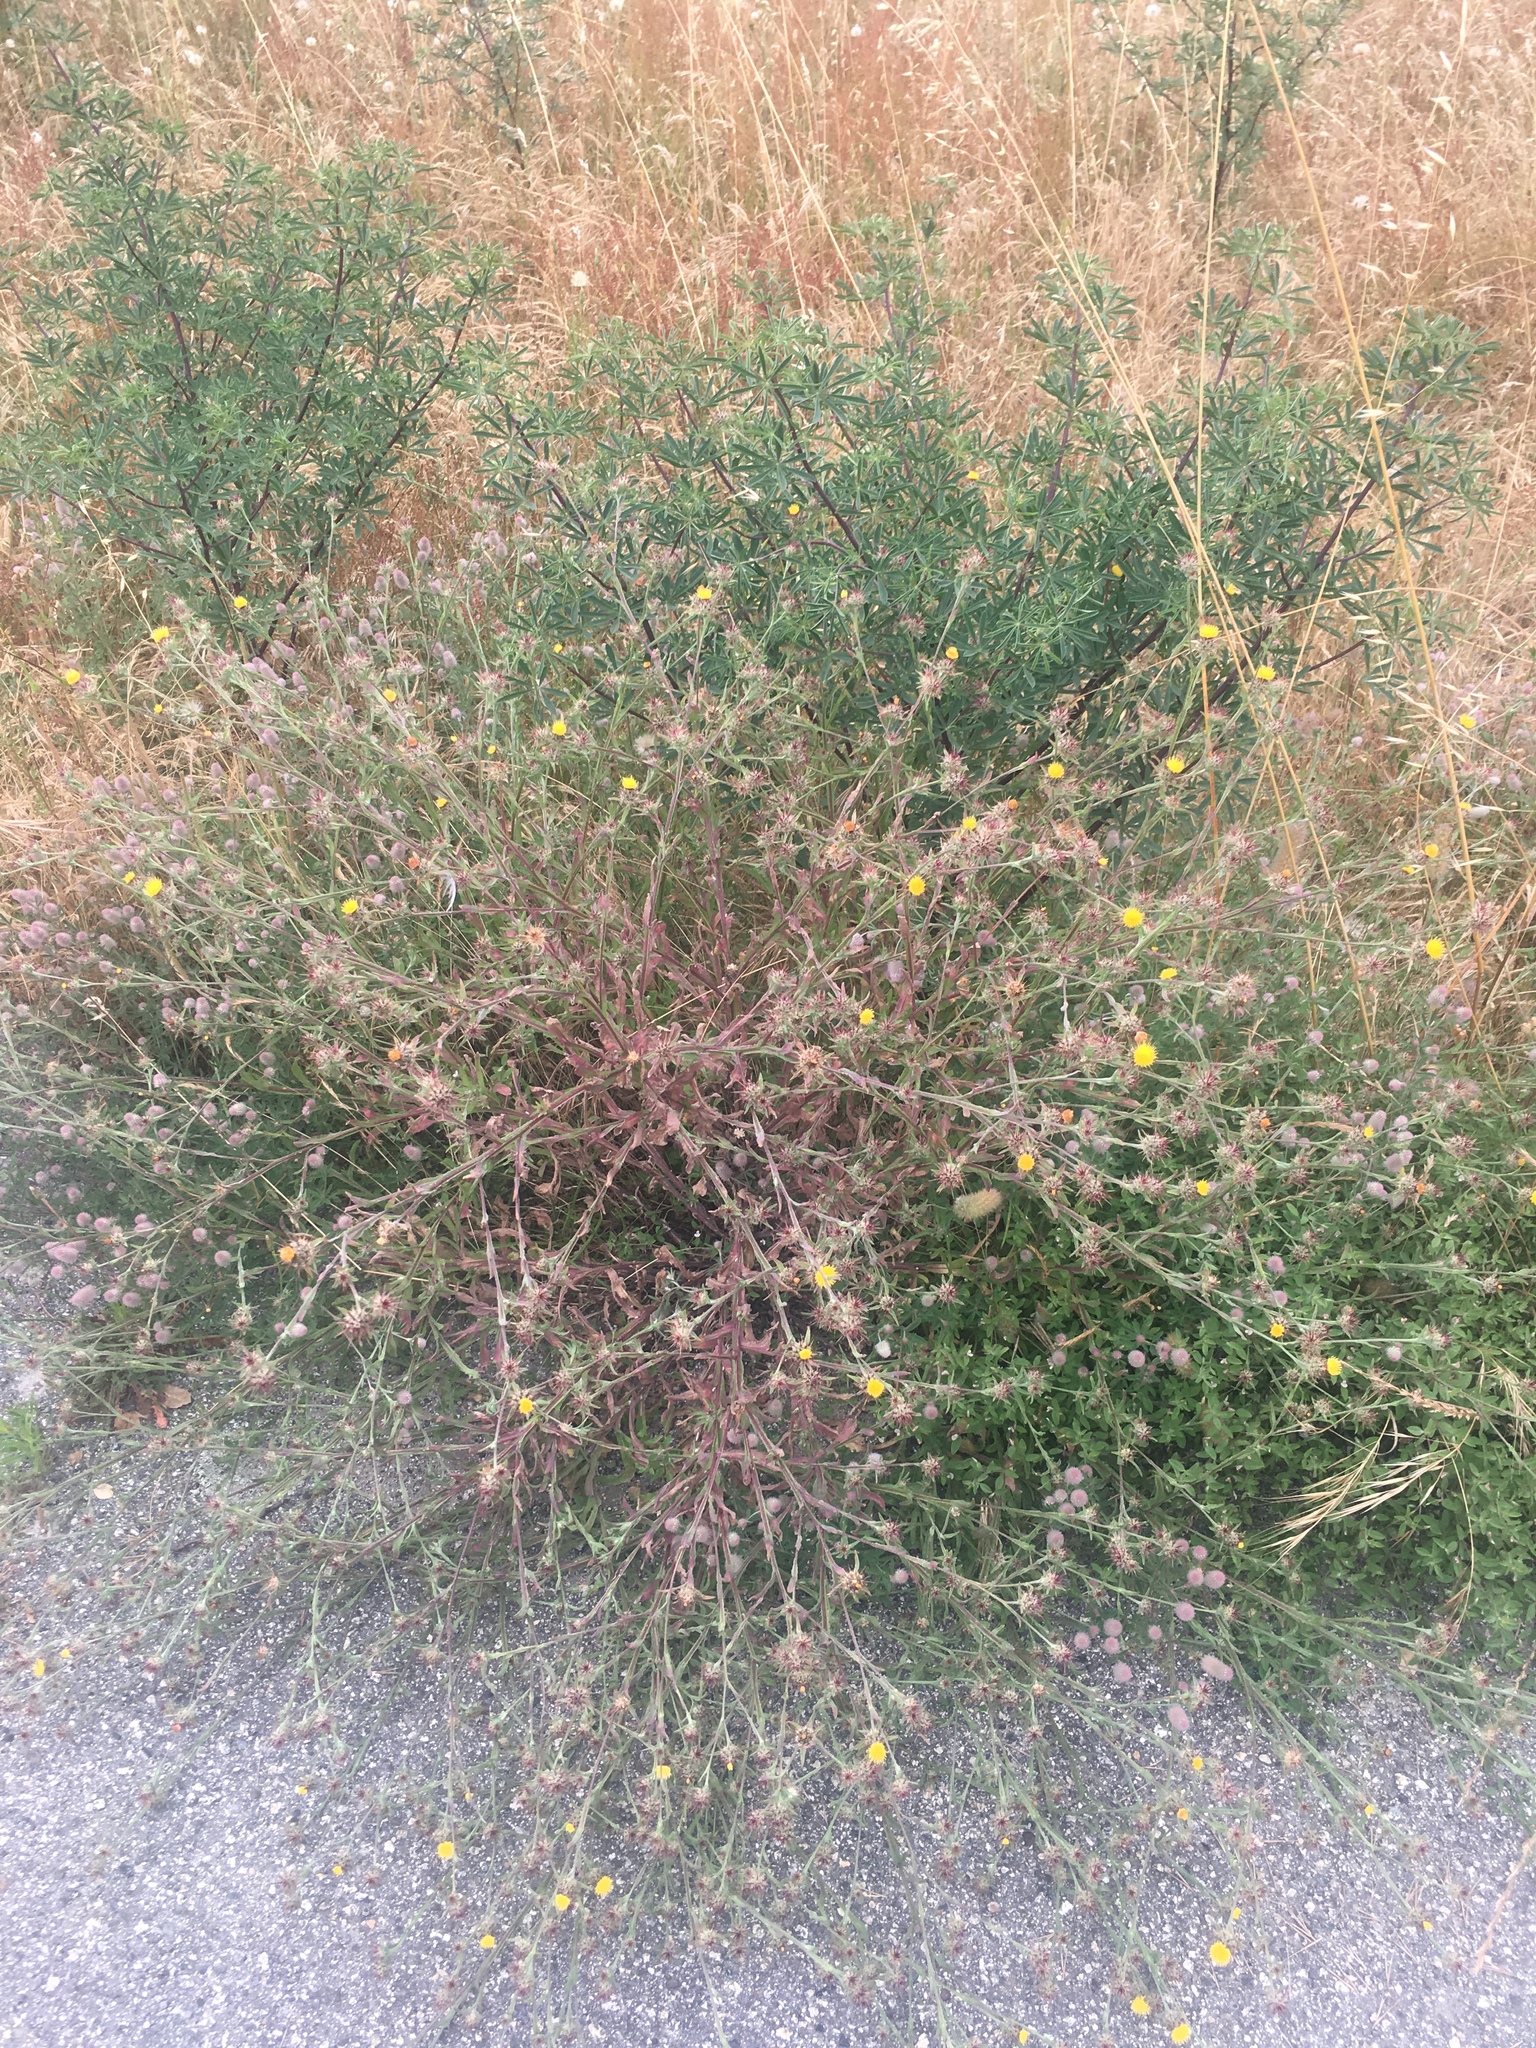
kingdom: Plantae
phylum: Tracheophyta
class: Magnoliopsida
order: Asterales
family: Asteraceae
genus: Centaurea
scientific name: Centaurea melitensis
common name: Maltese star-thistle
